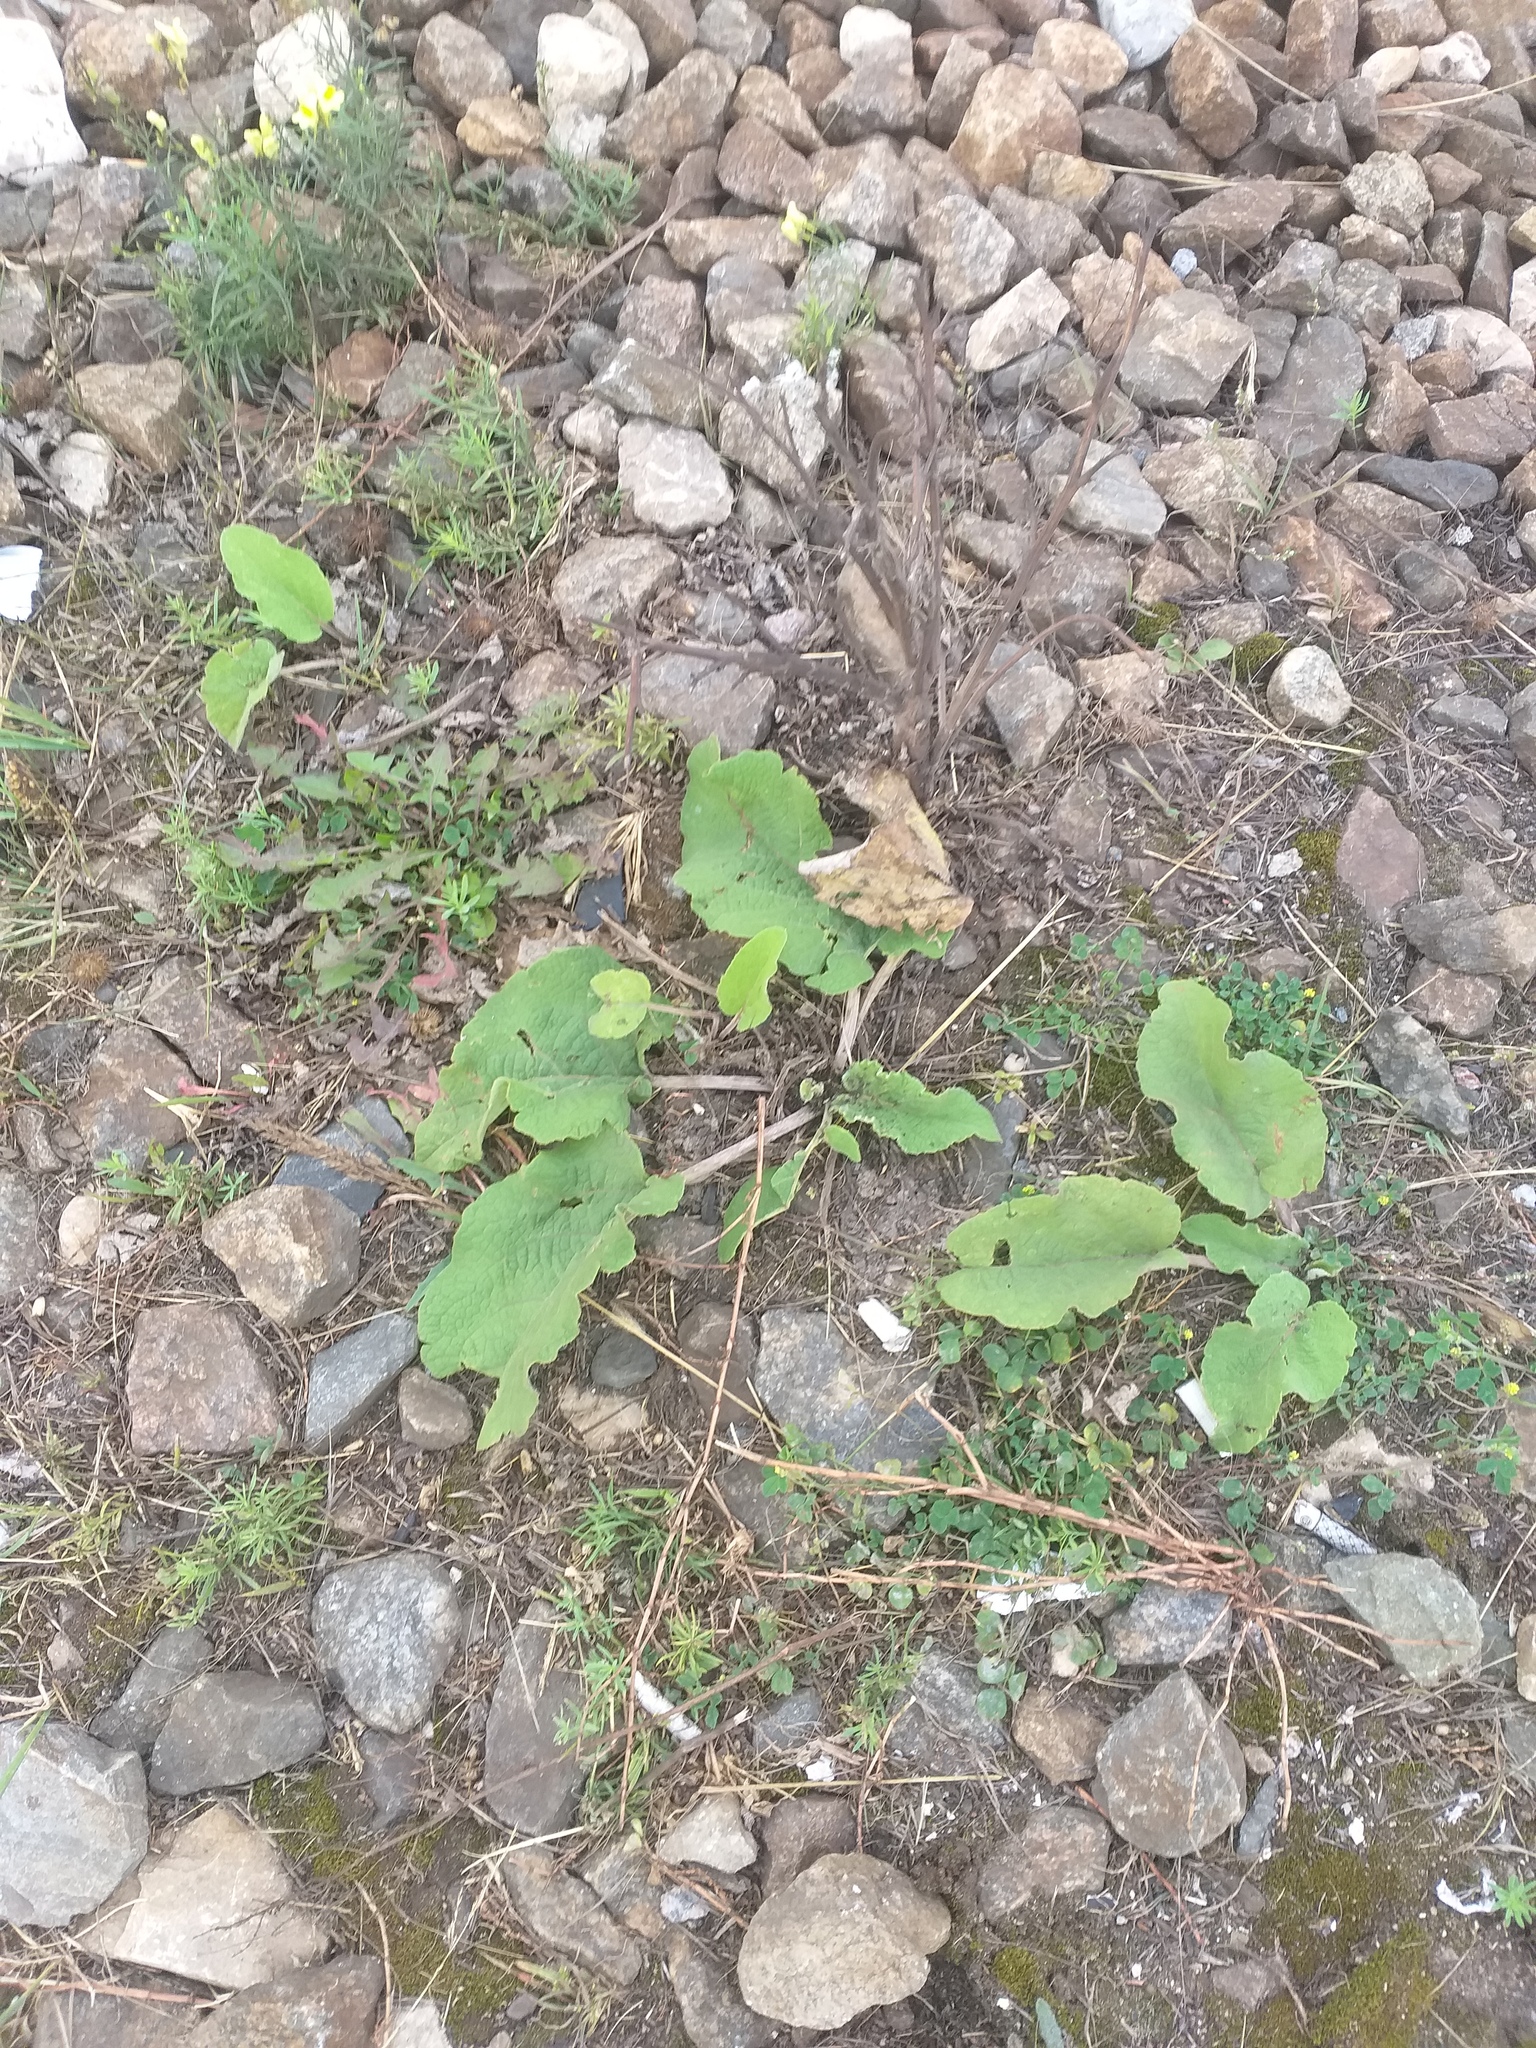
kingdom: Plantae
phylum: Tracheophyta
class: Magnoliopsida
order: Asterales
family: Asteraceae
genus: Arctium
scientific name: Arctium
